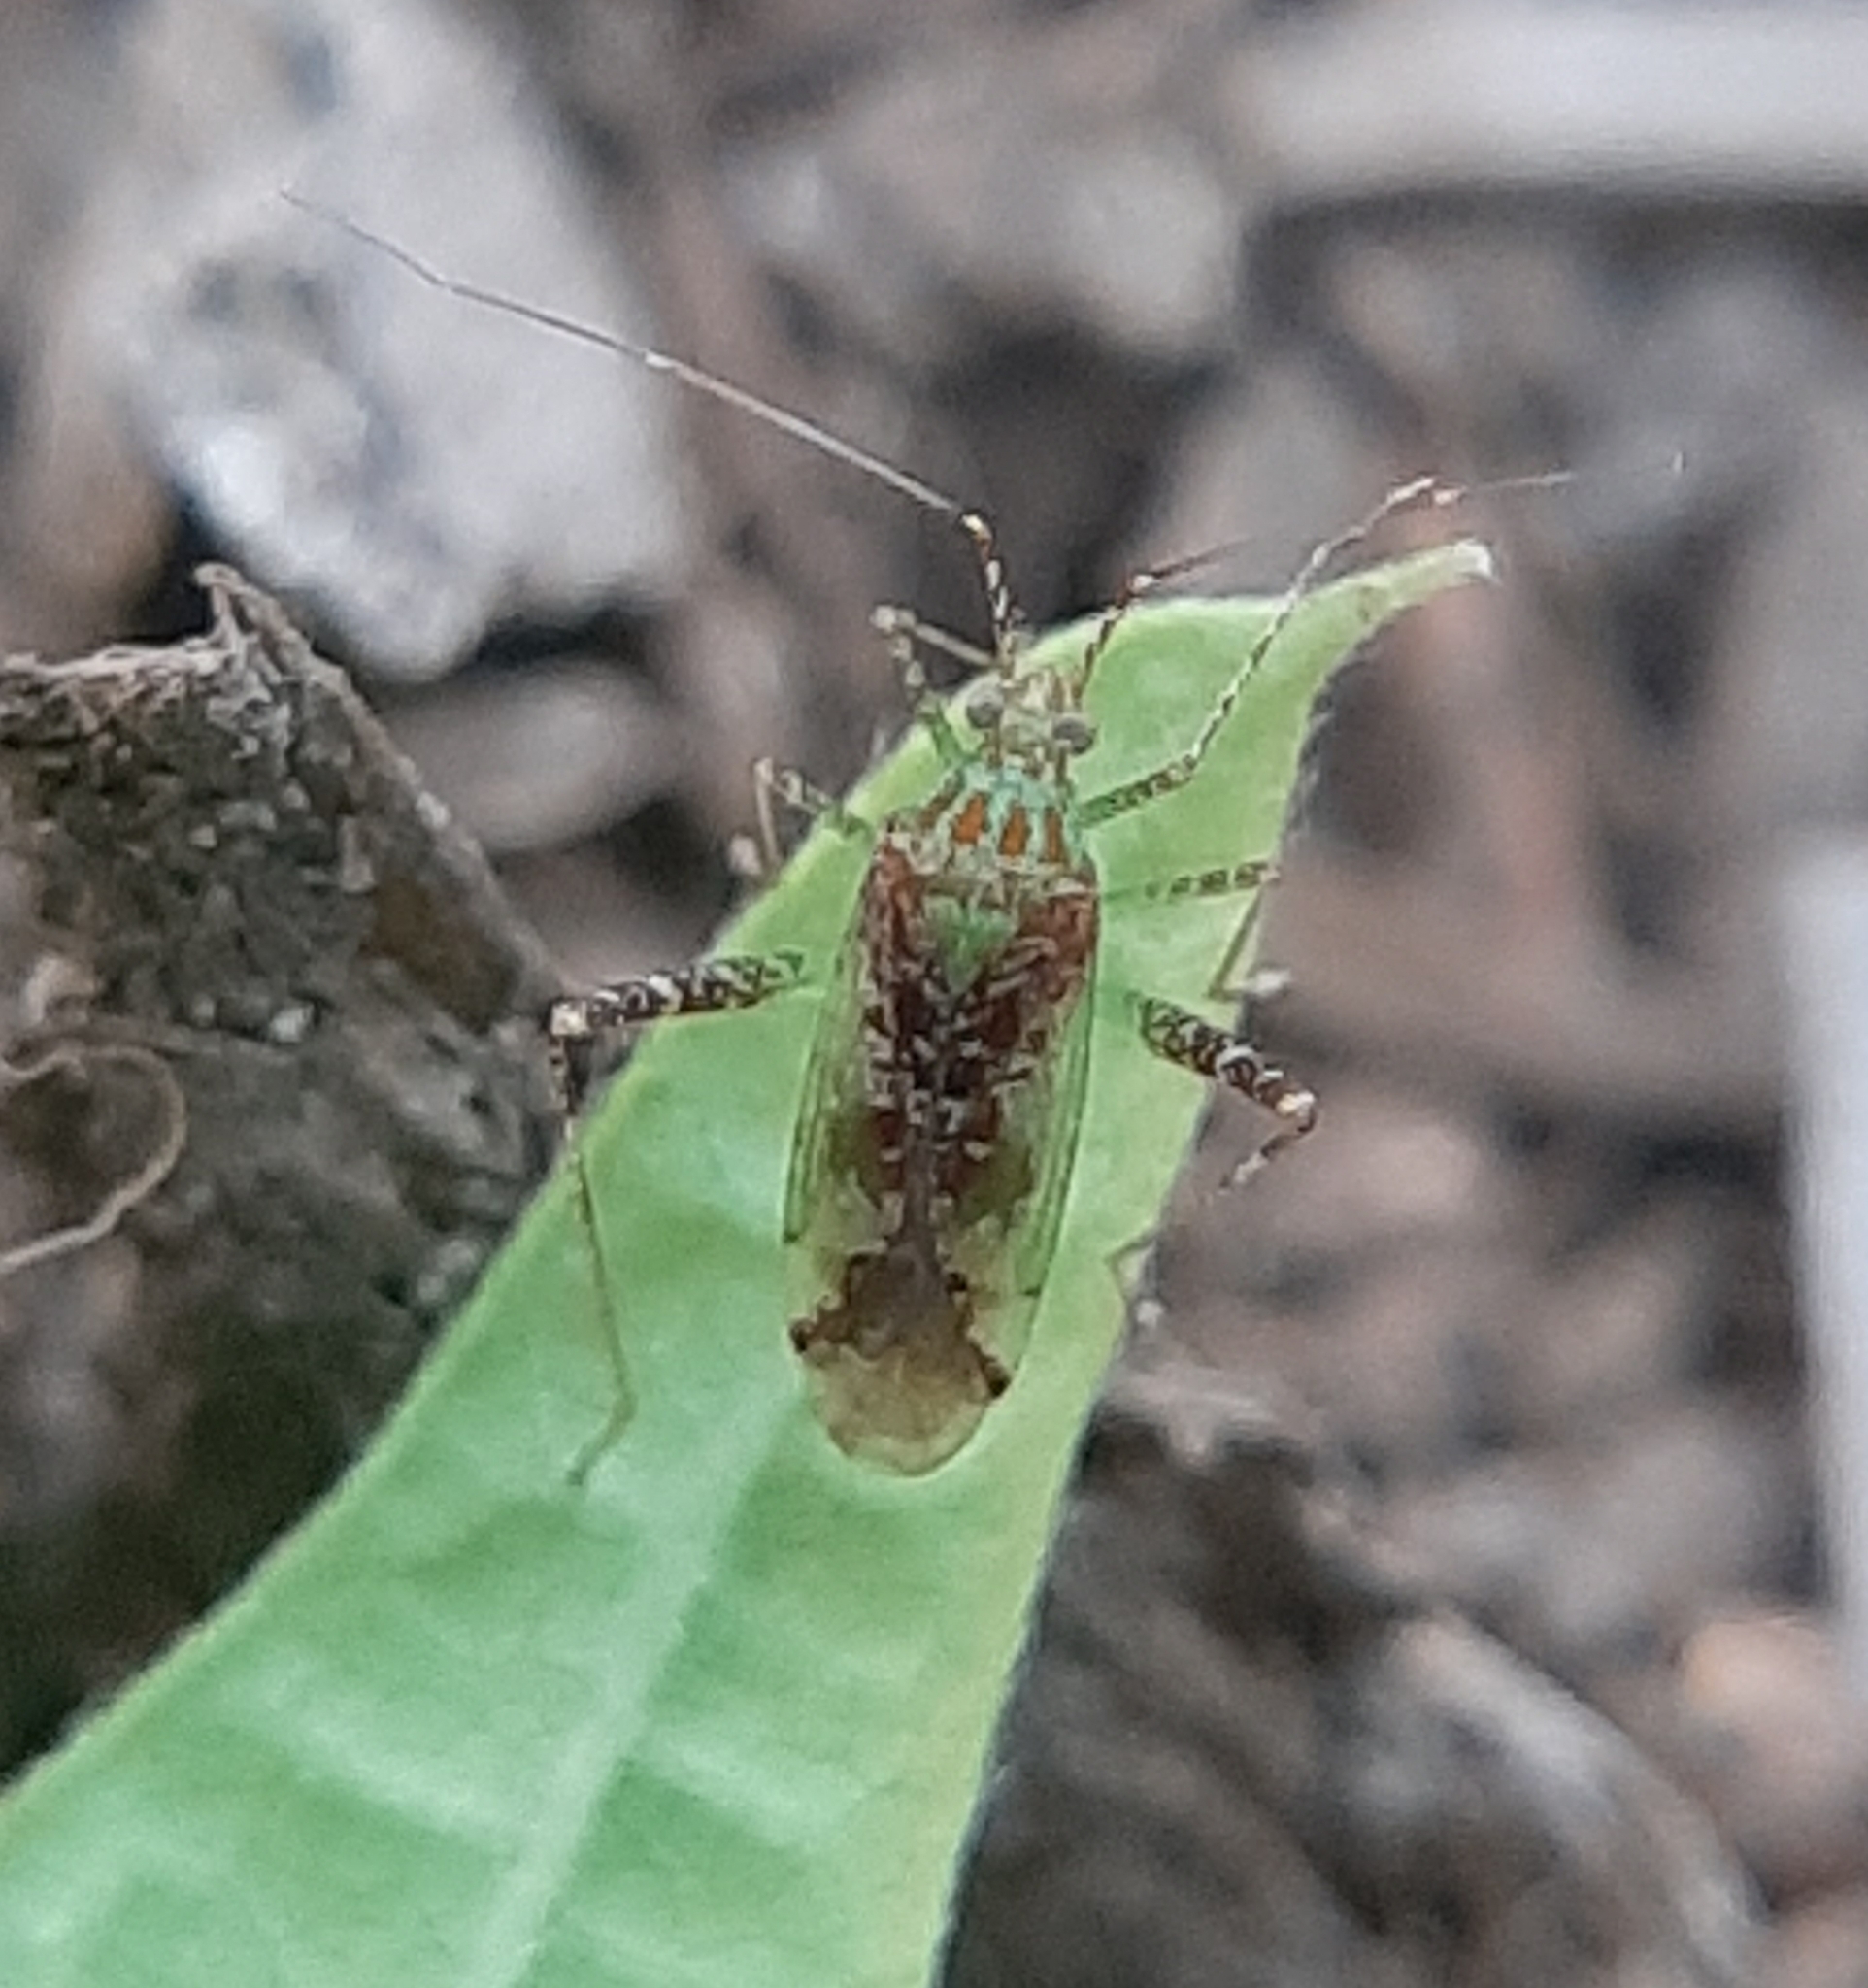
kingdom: Animalia
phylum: Arthropoda
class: Insecta
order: Hemiptera
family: Miridae
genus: Phytocoris
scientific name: Phytocoris tibialis
